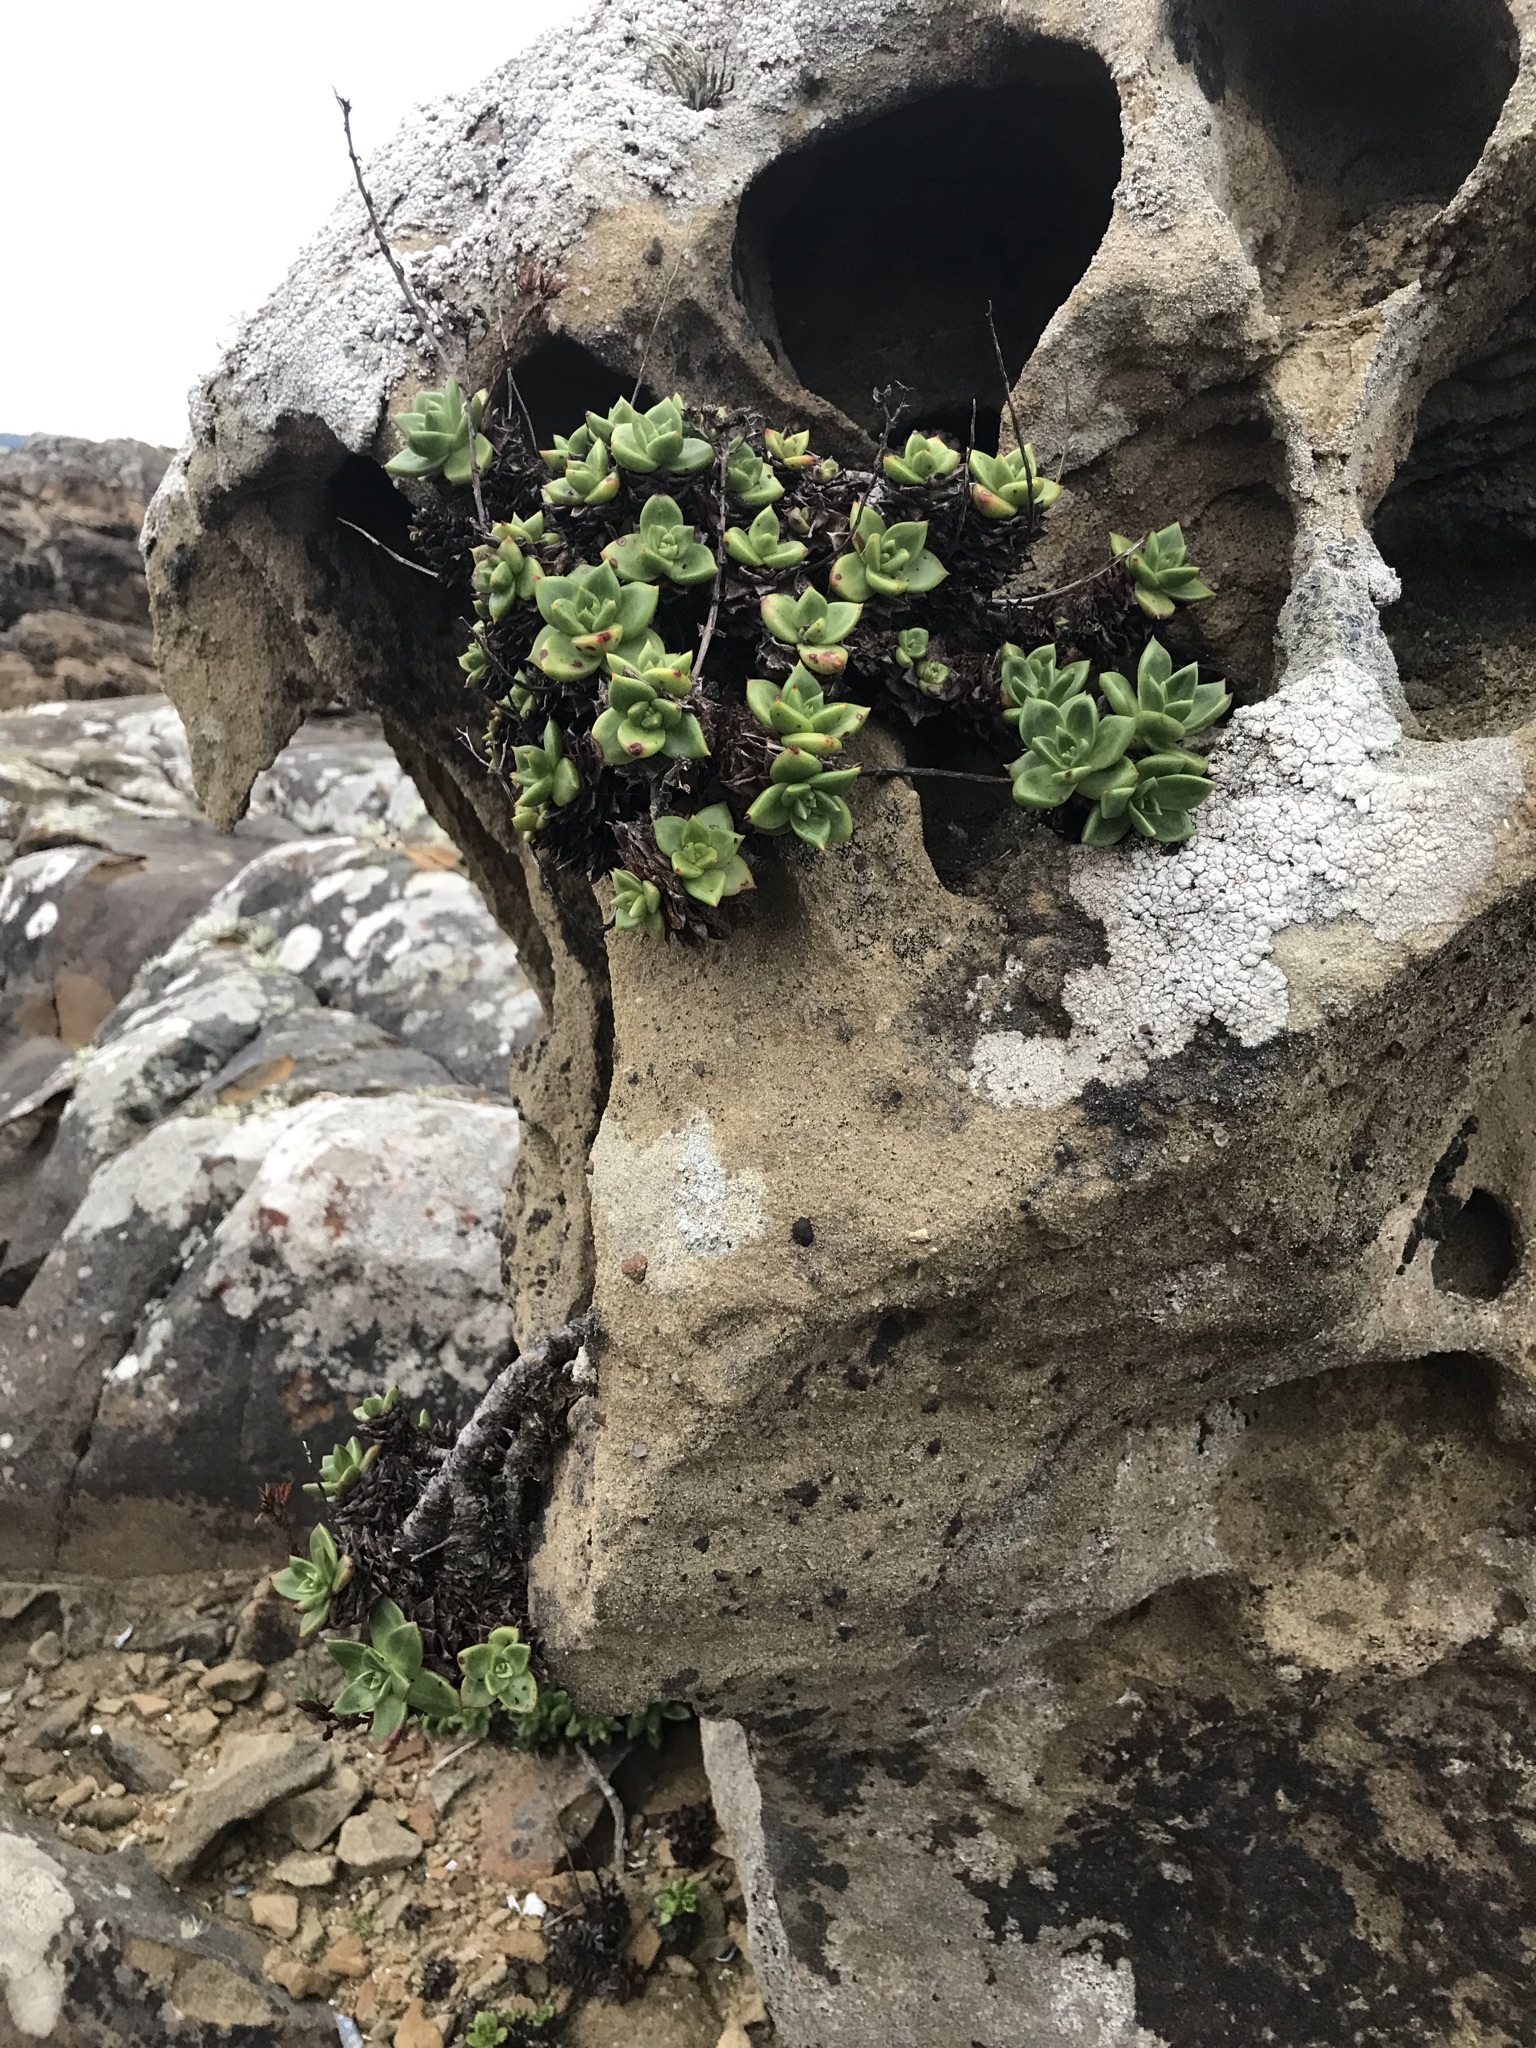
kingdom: Plantae
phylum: Tracheophyta
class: Magnoliopsida
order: Saxifragales
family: Crassulaceae
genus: Dudleya
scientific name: Dudleya farinosa
